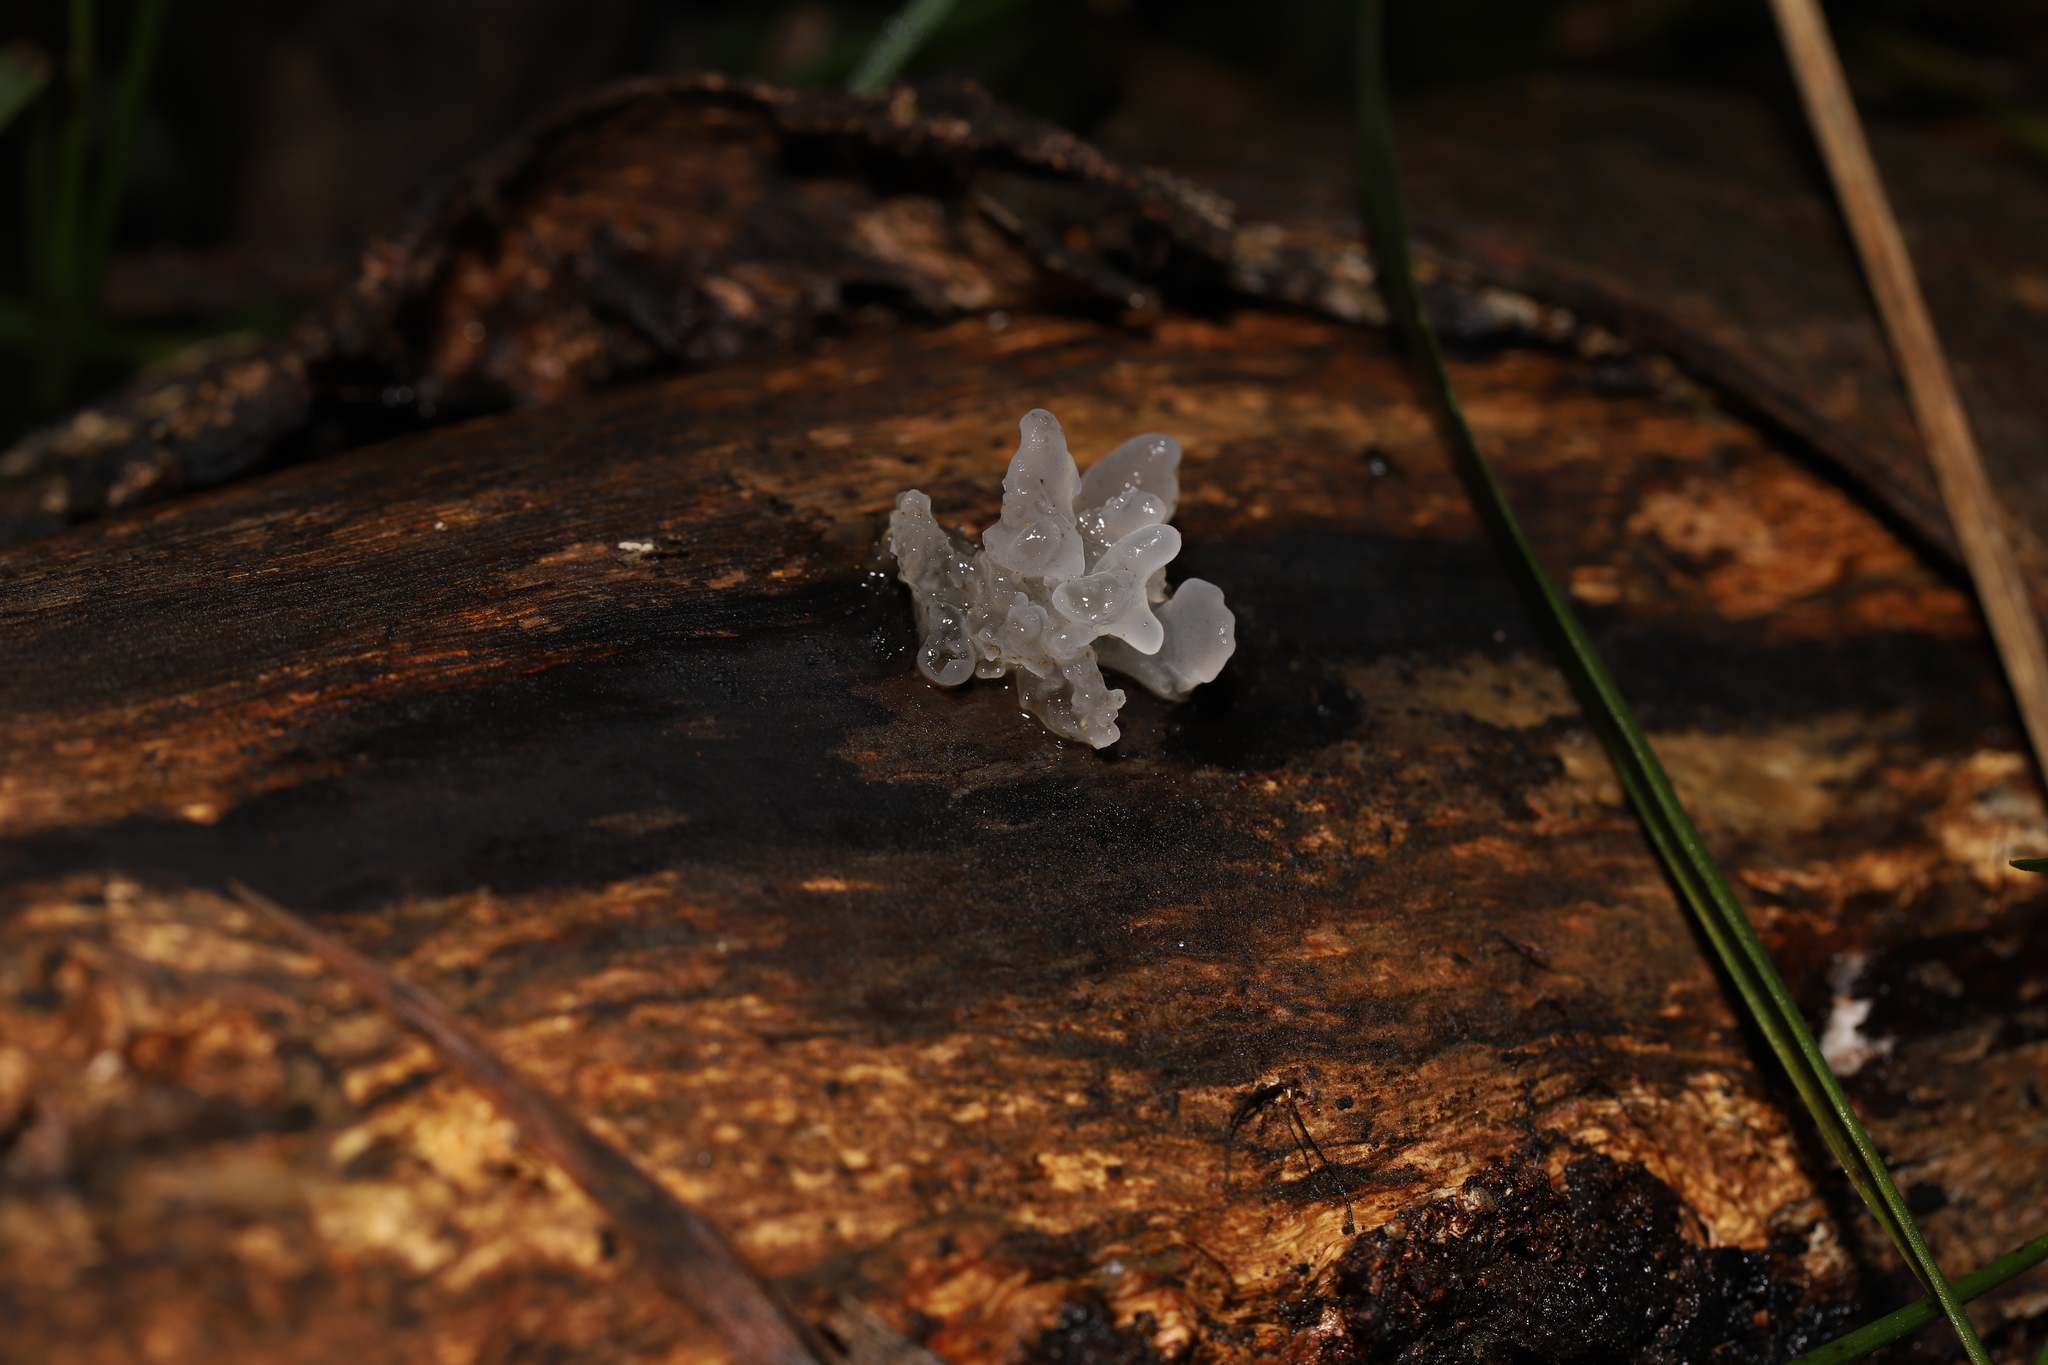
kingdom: Fungi
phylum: Basidiomycota
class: Tremellomycetes
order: Tremellales
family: Tremellaceae
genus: Tremella
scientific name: Tremella fuciformis
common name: Snow fungus
